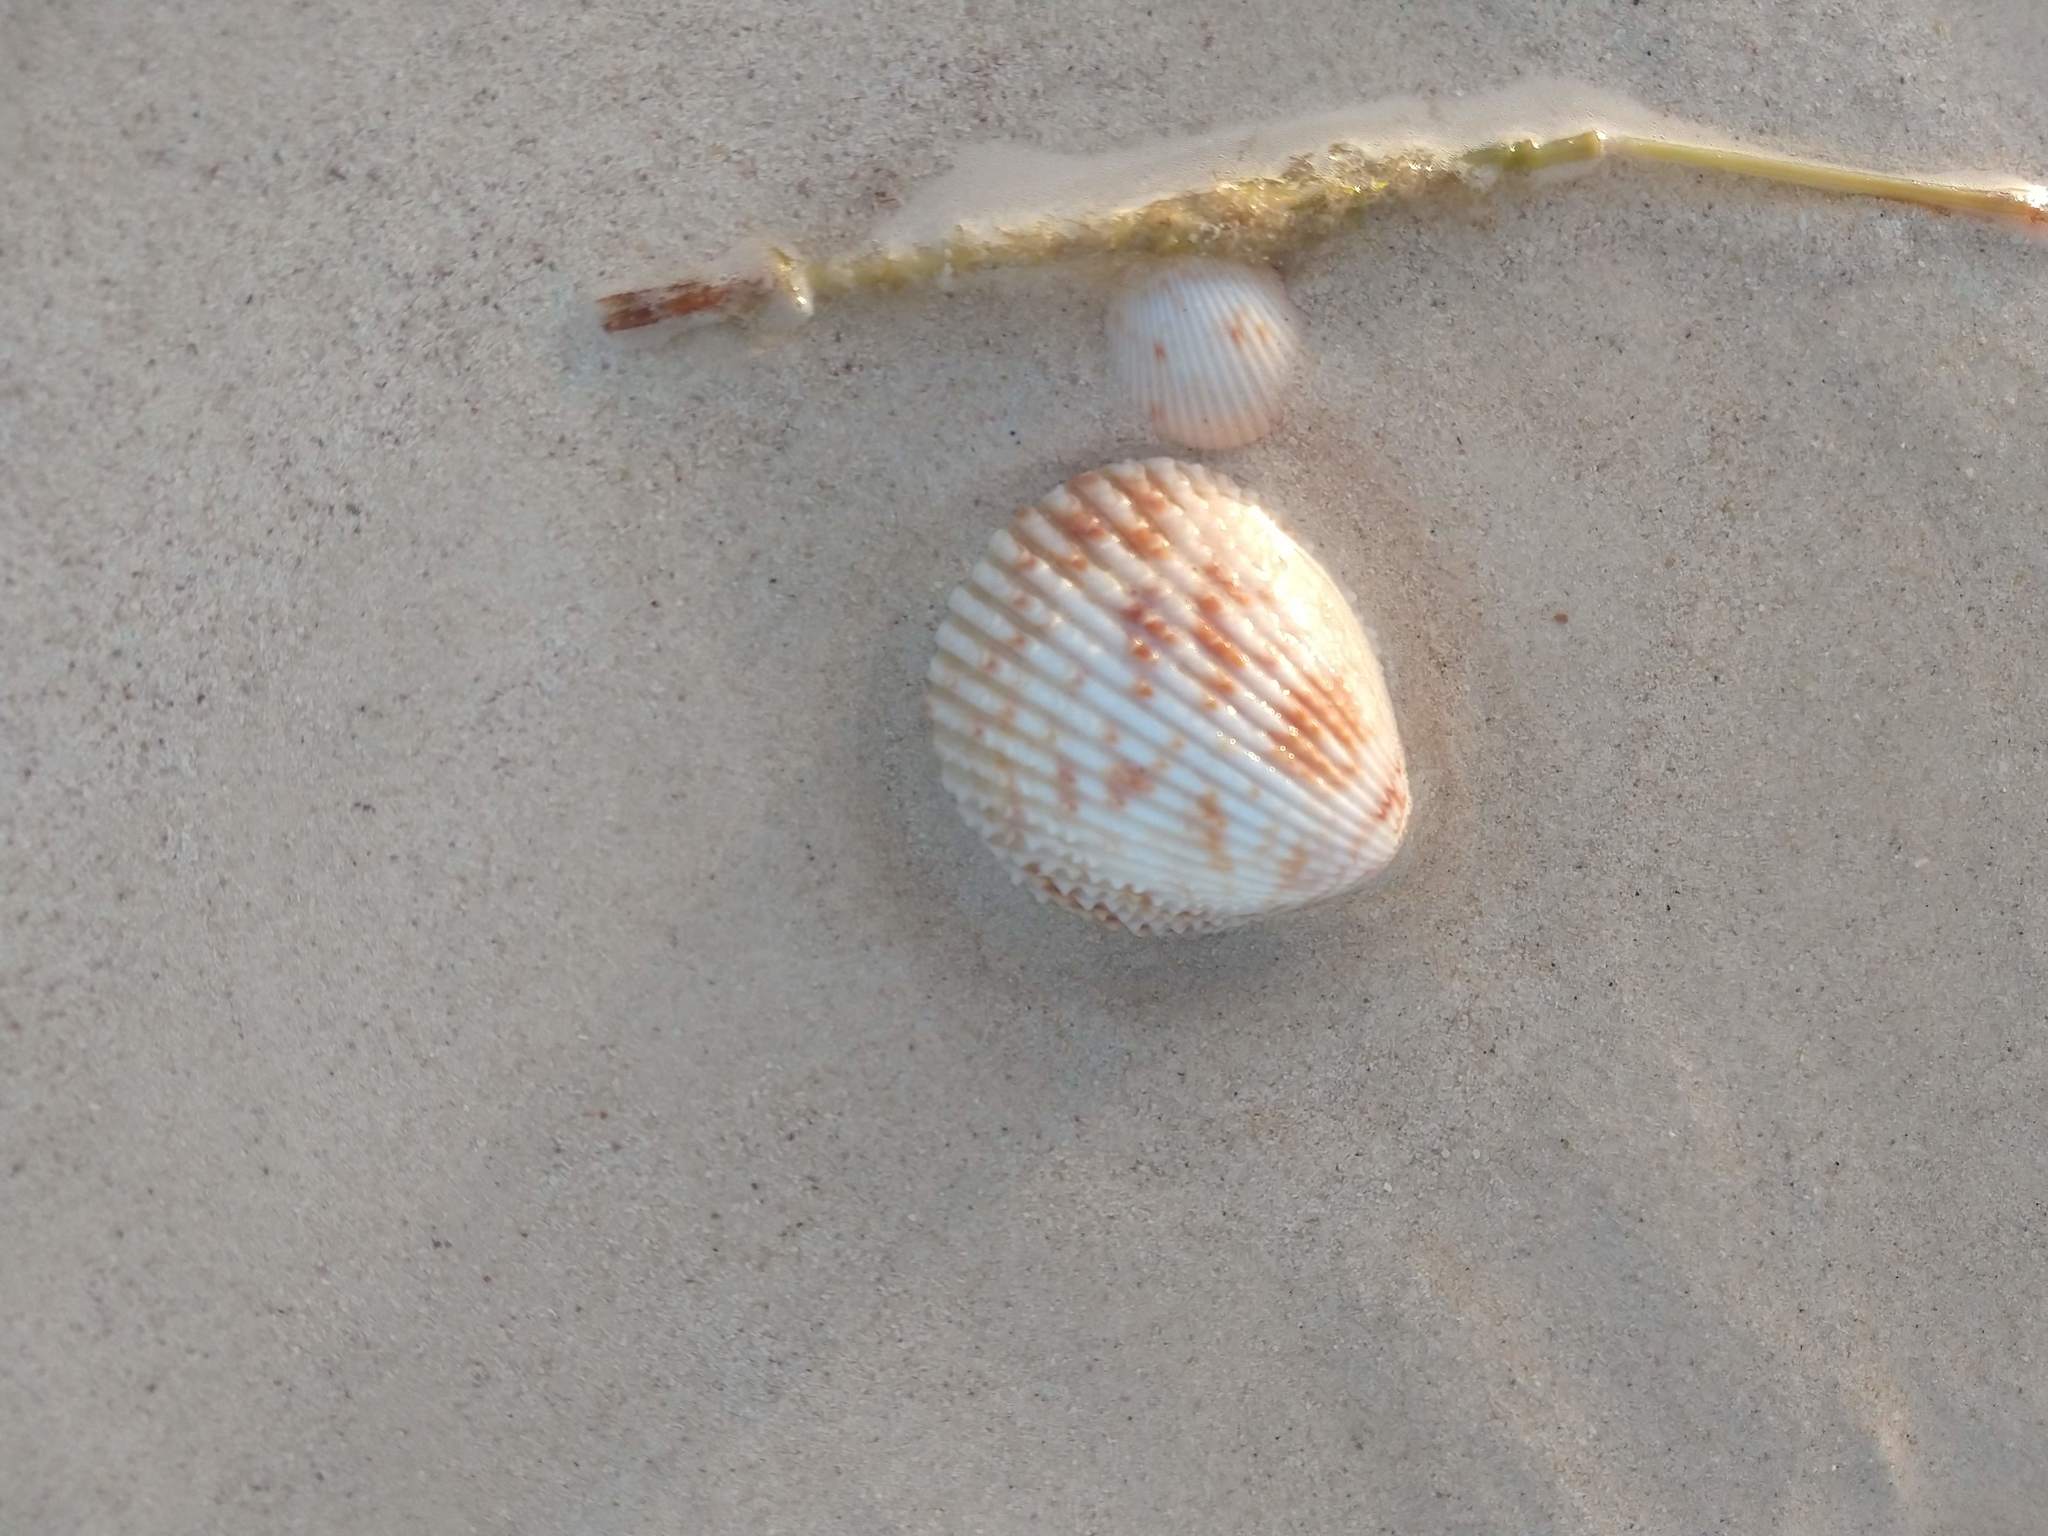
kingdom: Animalia
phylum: Mollusca
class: Bivalvia
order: Cardiida
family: Cardiidae
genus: Trachycardium
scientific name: Trachycardium egmontianum
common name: Florida pricklycockle
